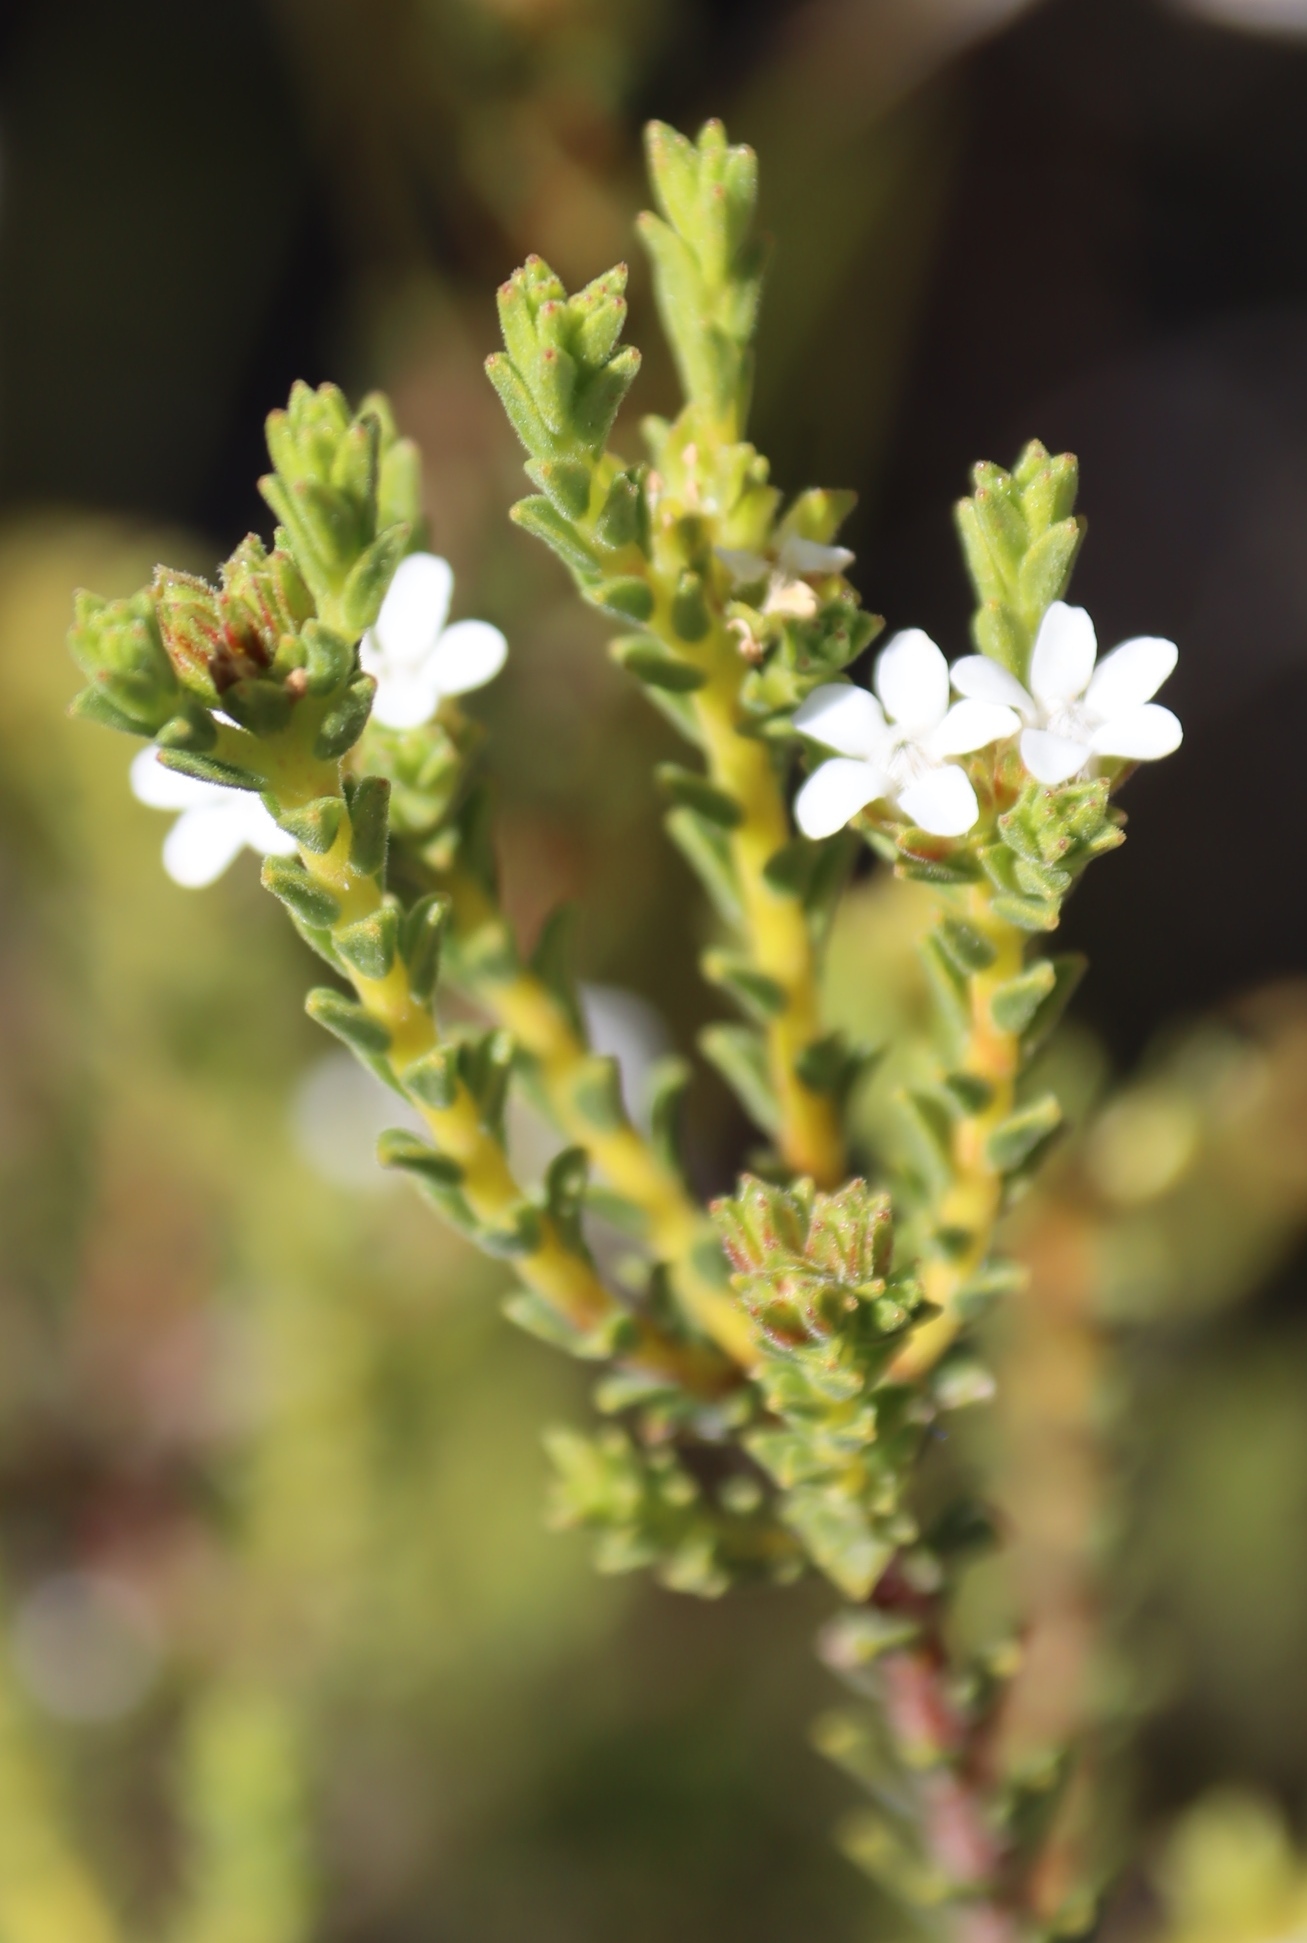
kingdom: Plantae
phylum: Tracheophyta
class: Magnoliopsida
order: Sapindales
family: Rutaceae
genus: Euchaetis
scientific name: Euchaetis vallis-simiae
